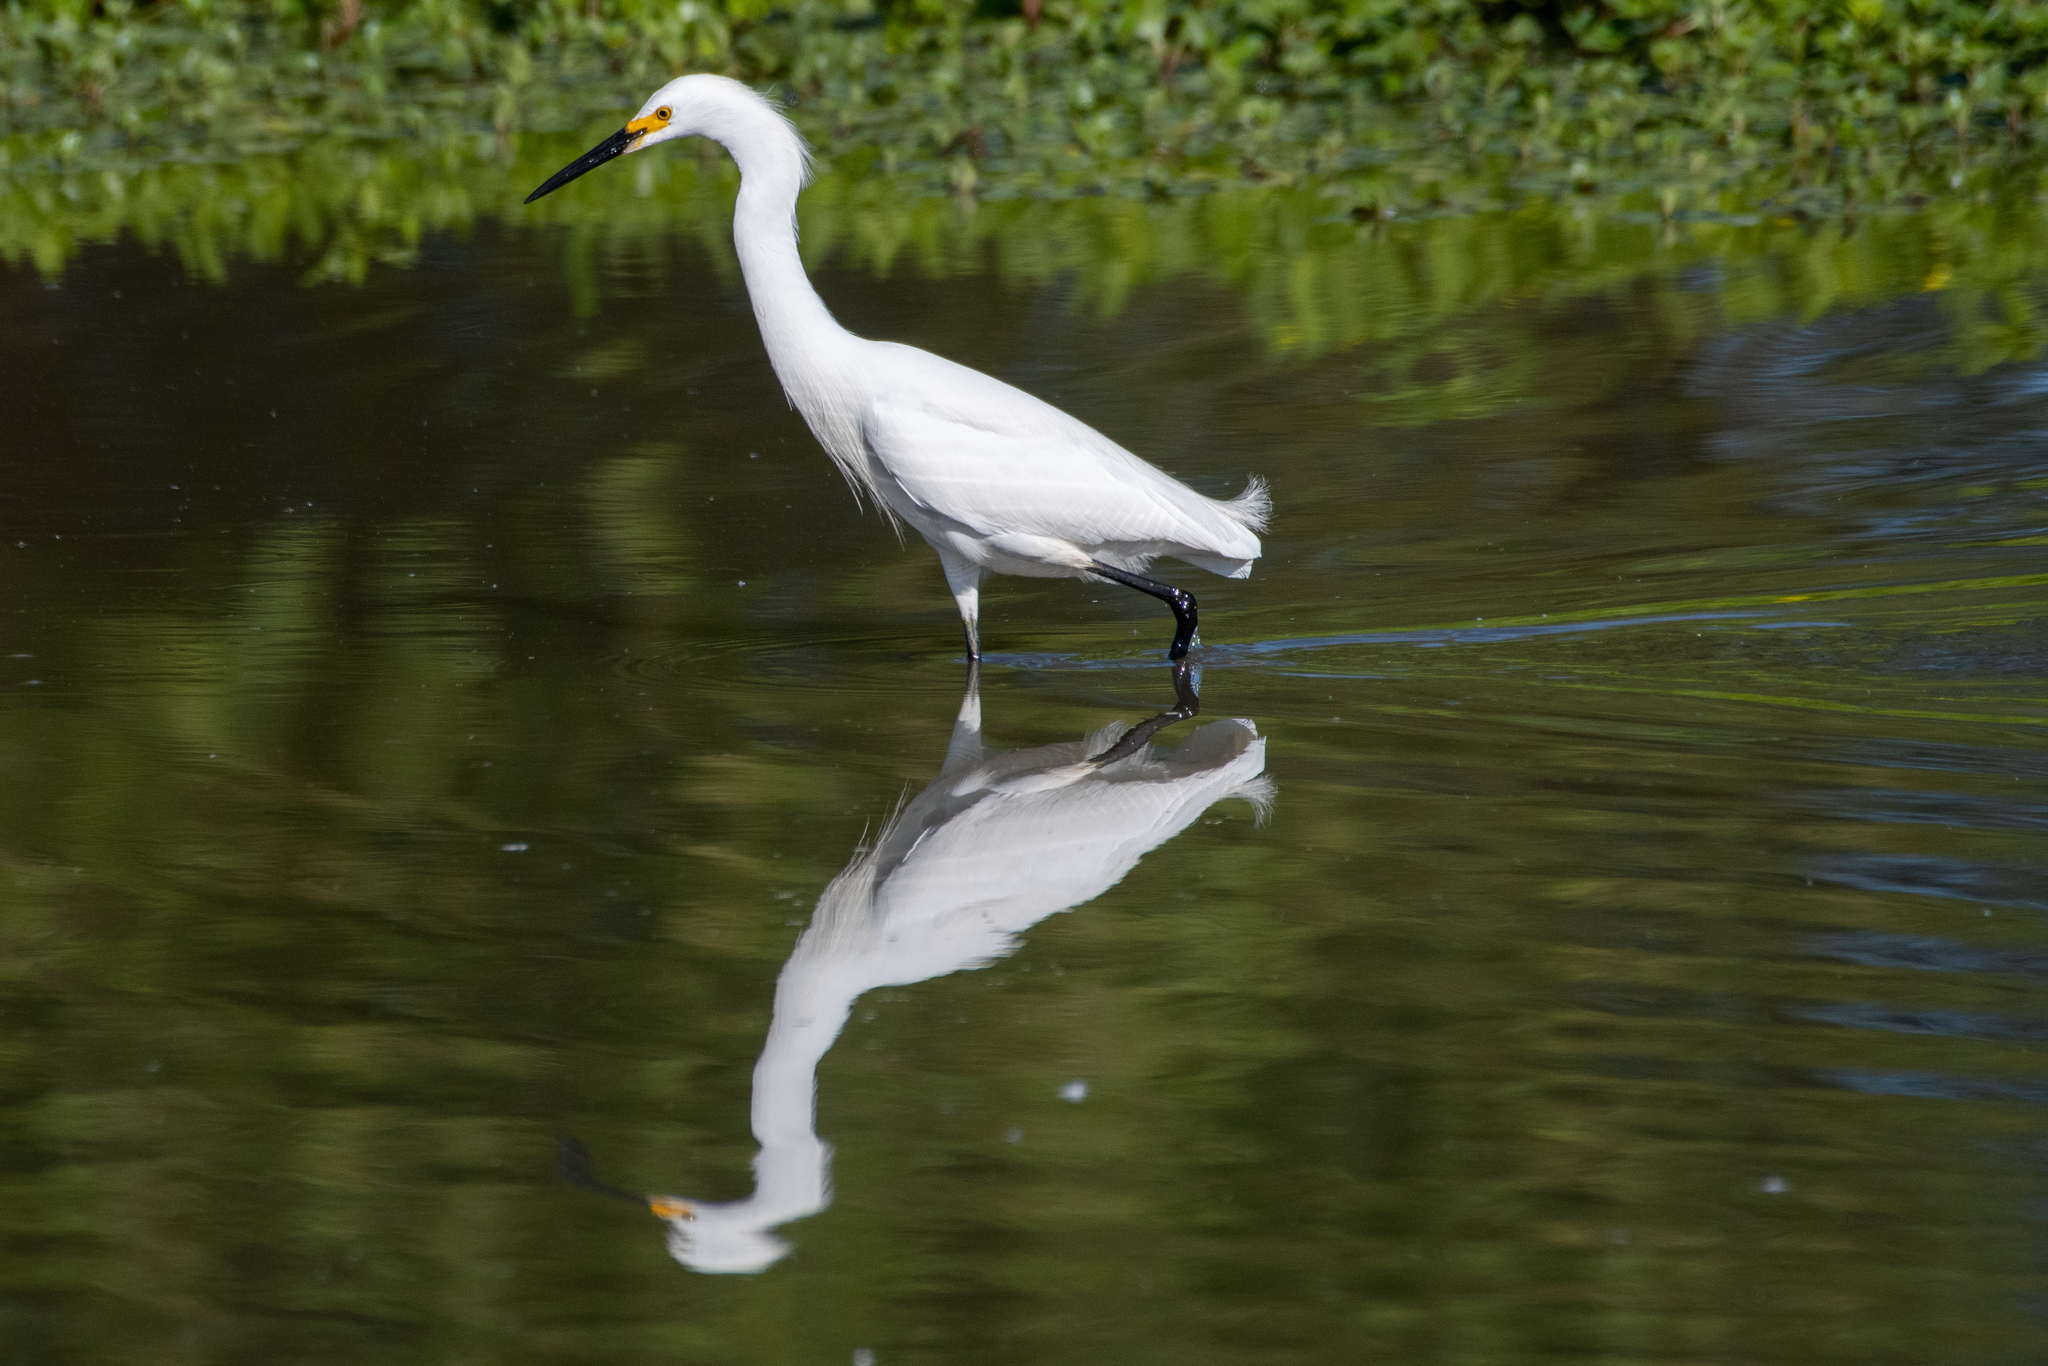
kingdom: Animalia
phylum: Chordata
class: Aves
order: Pelecaniformes
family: Ardeidae
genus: Egretta
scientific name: Egretta thula
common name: Snowy egret
